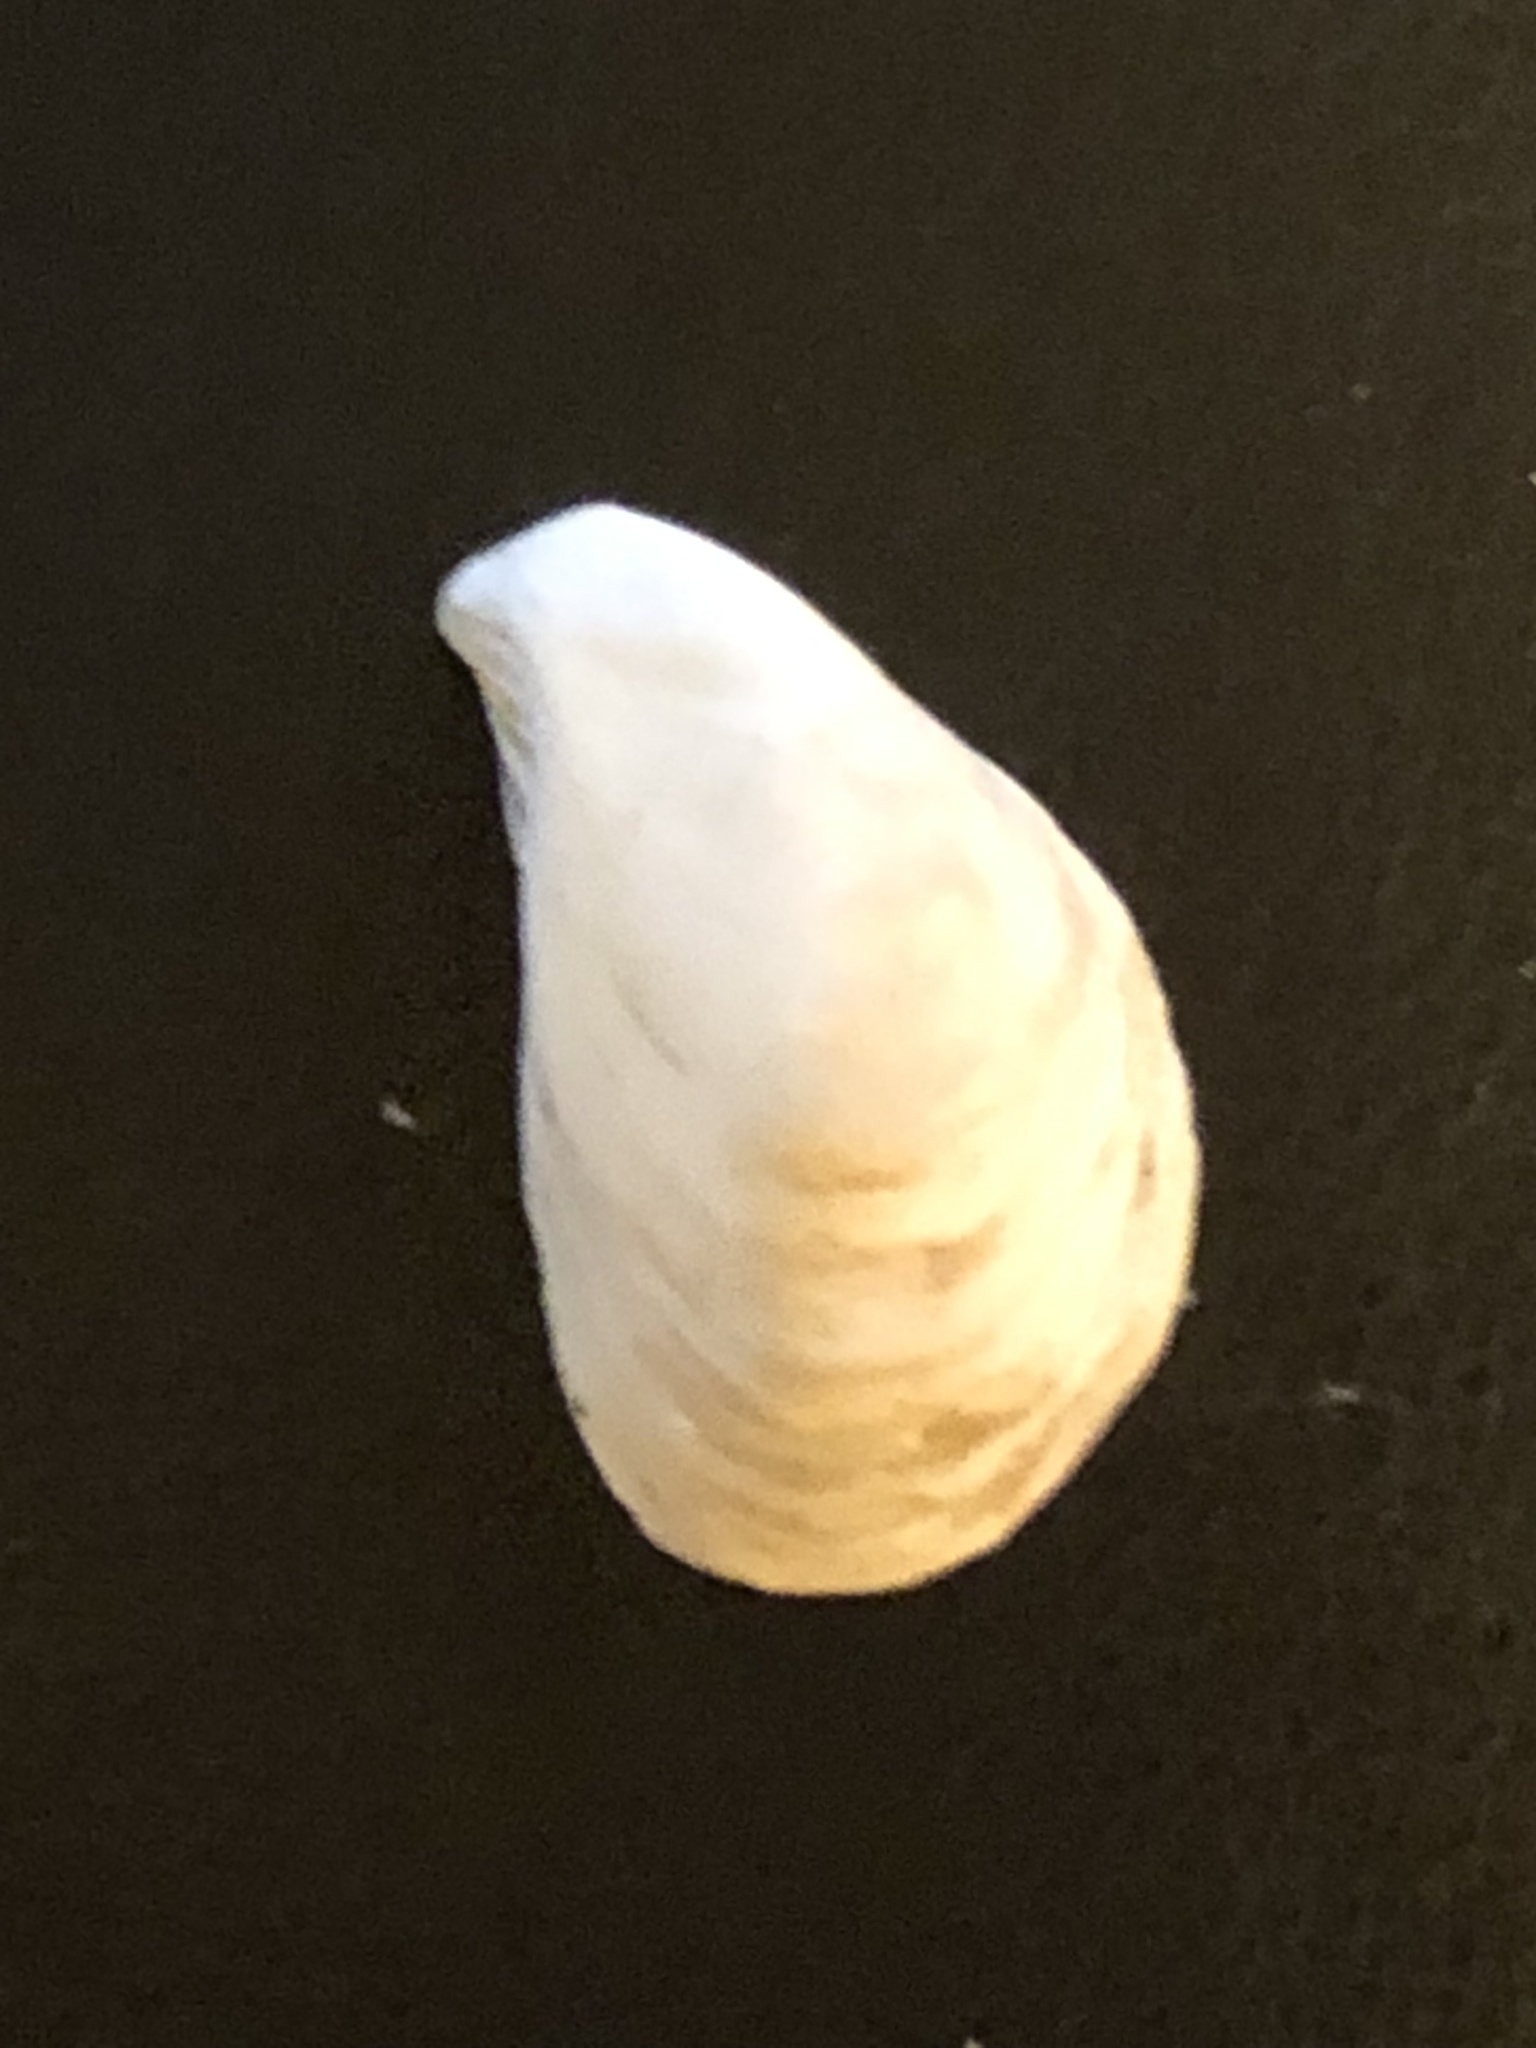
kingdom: Animalia
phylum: Mollusca
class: Bivalvia
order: Myida
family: Dreissenidae
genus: Dreissena
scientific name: Dreissena bugensis
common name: Quagga mussel
